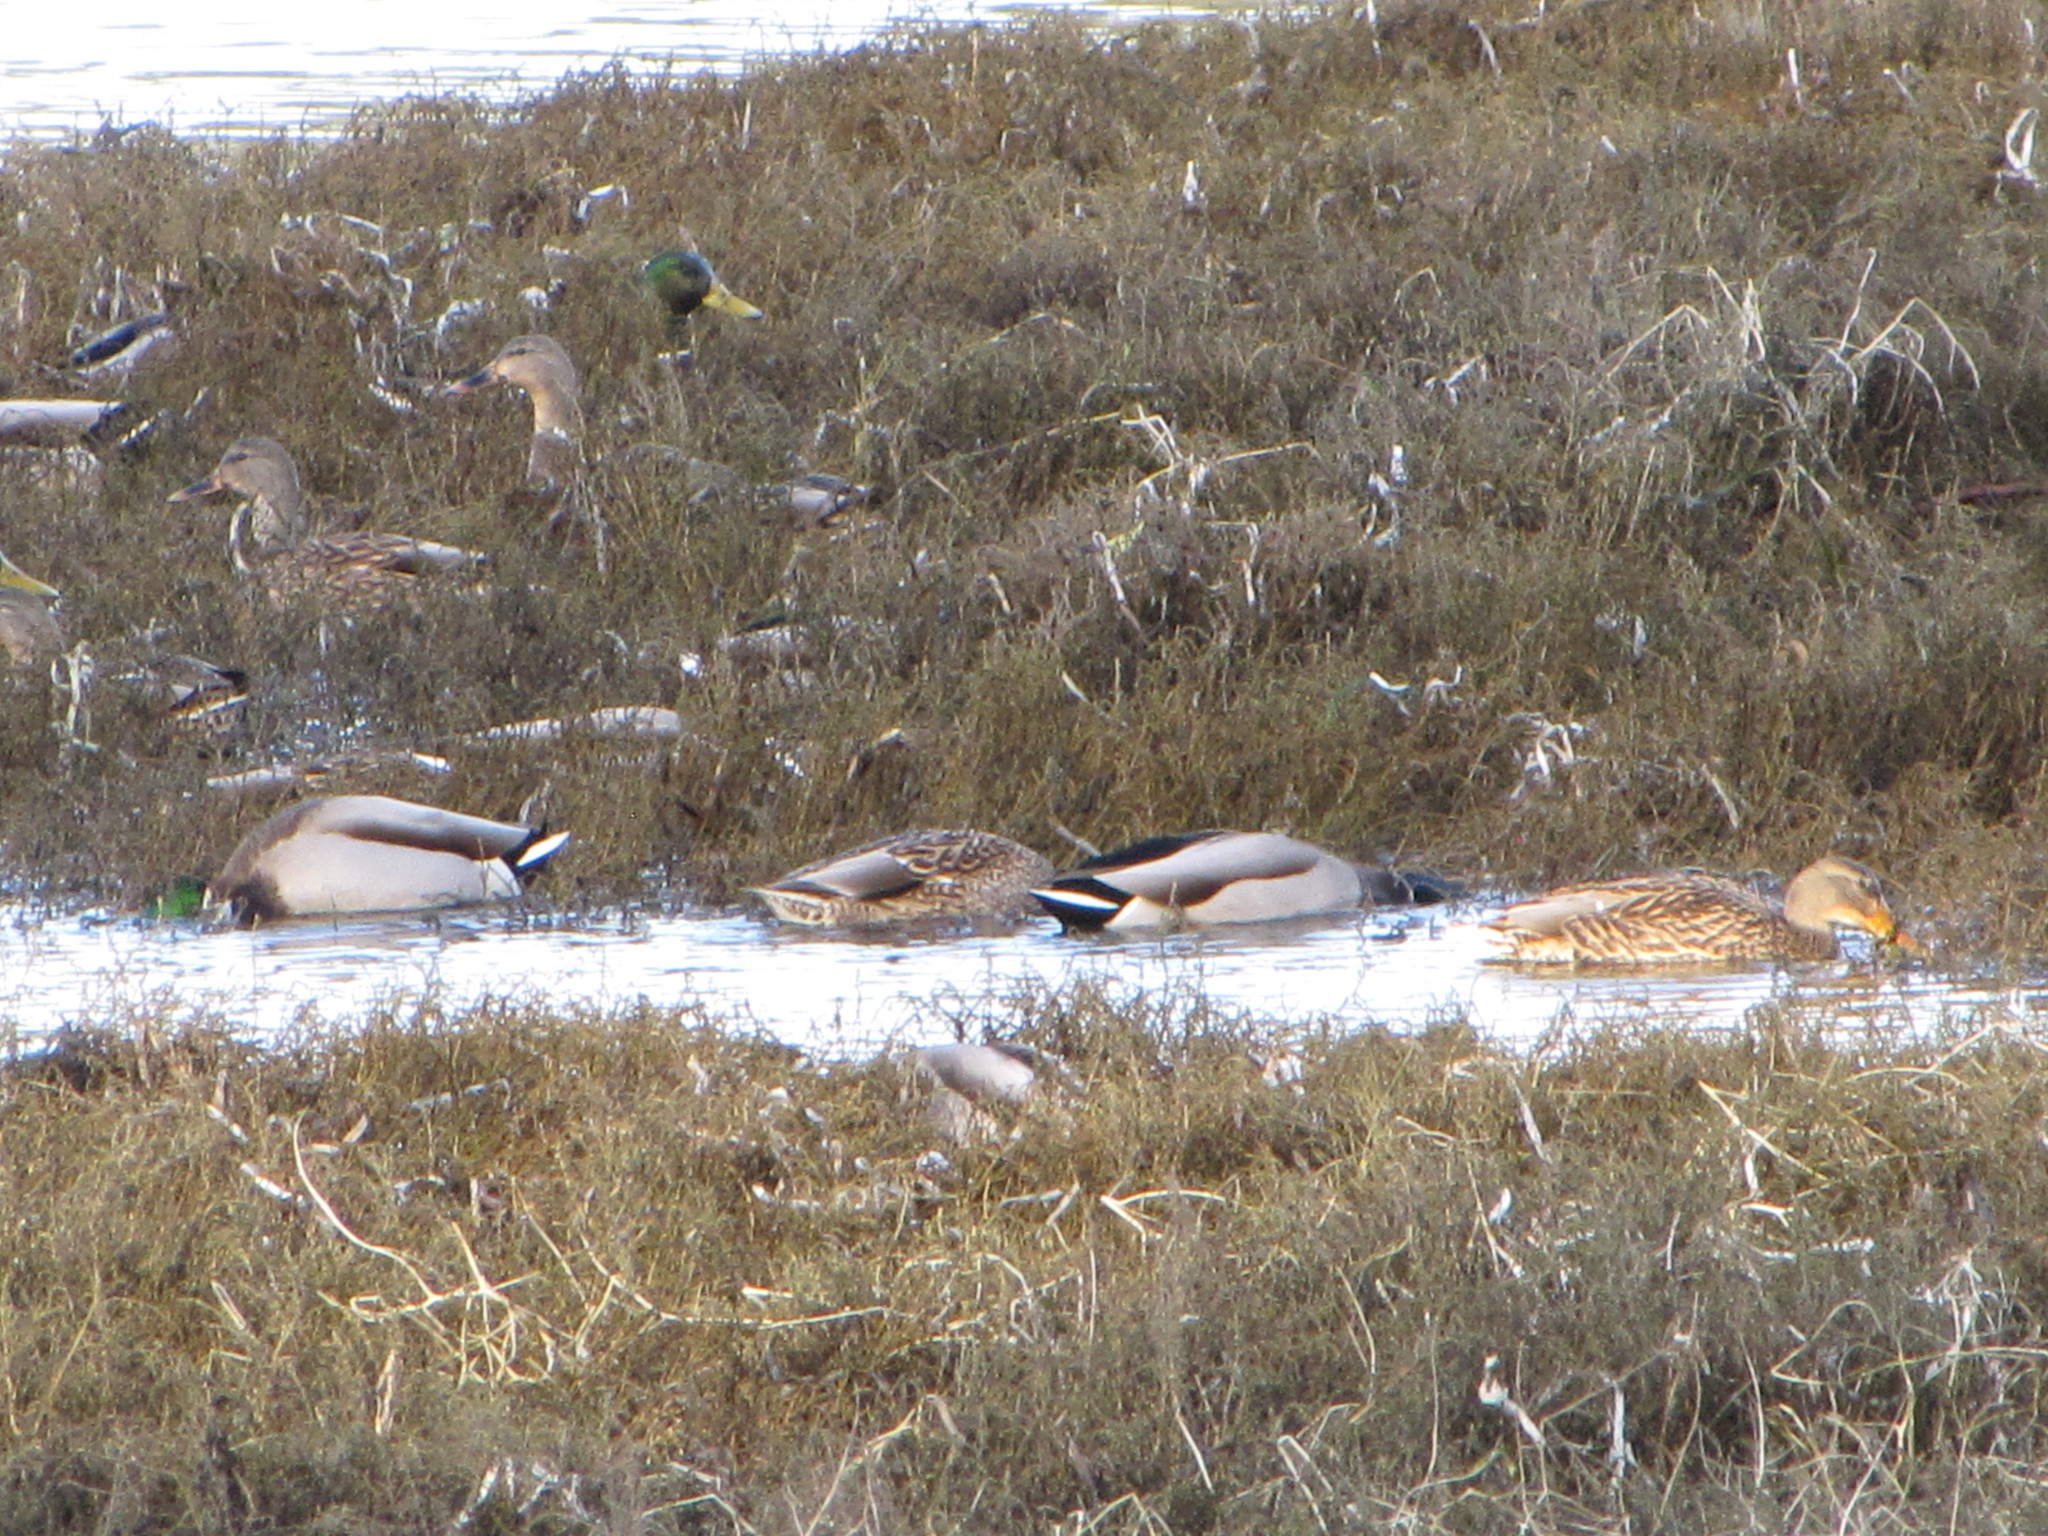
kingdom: Animalia
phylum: Chordata
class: Aves
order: Anseriformes
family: Anatidae
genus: Anas
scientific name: Anas platyrhynchos
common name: Mallard
